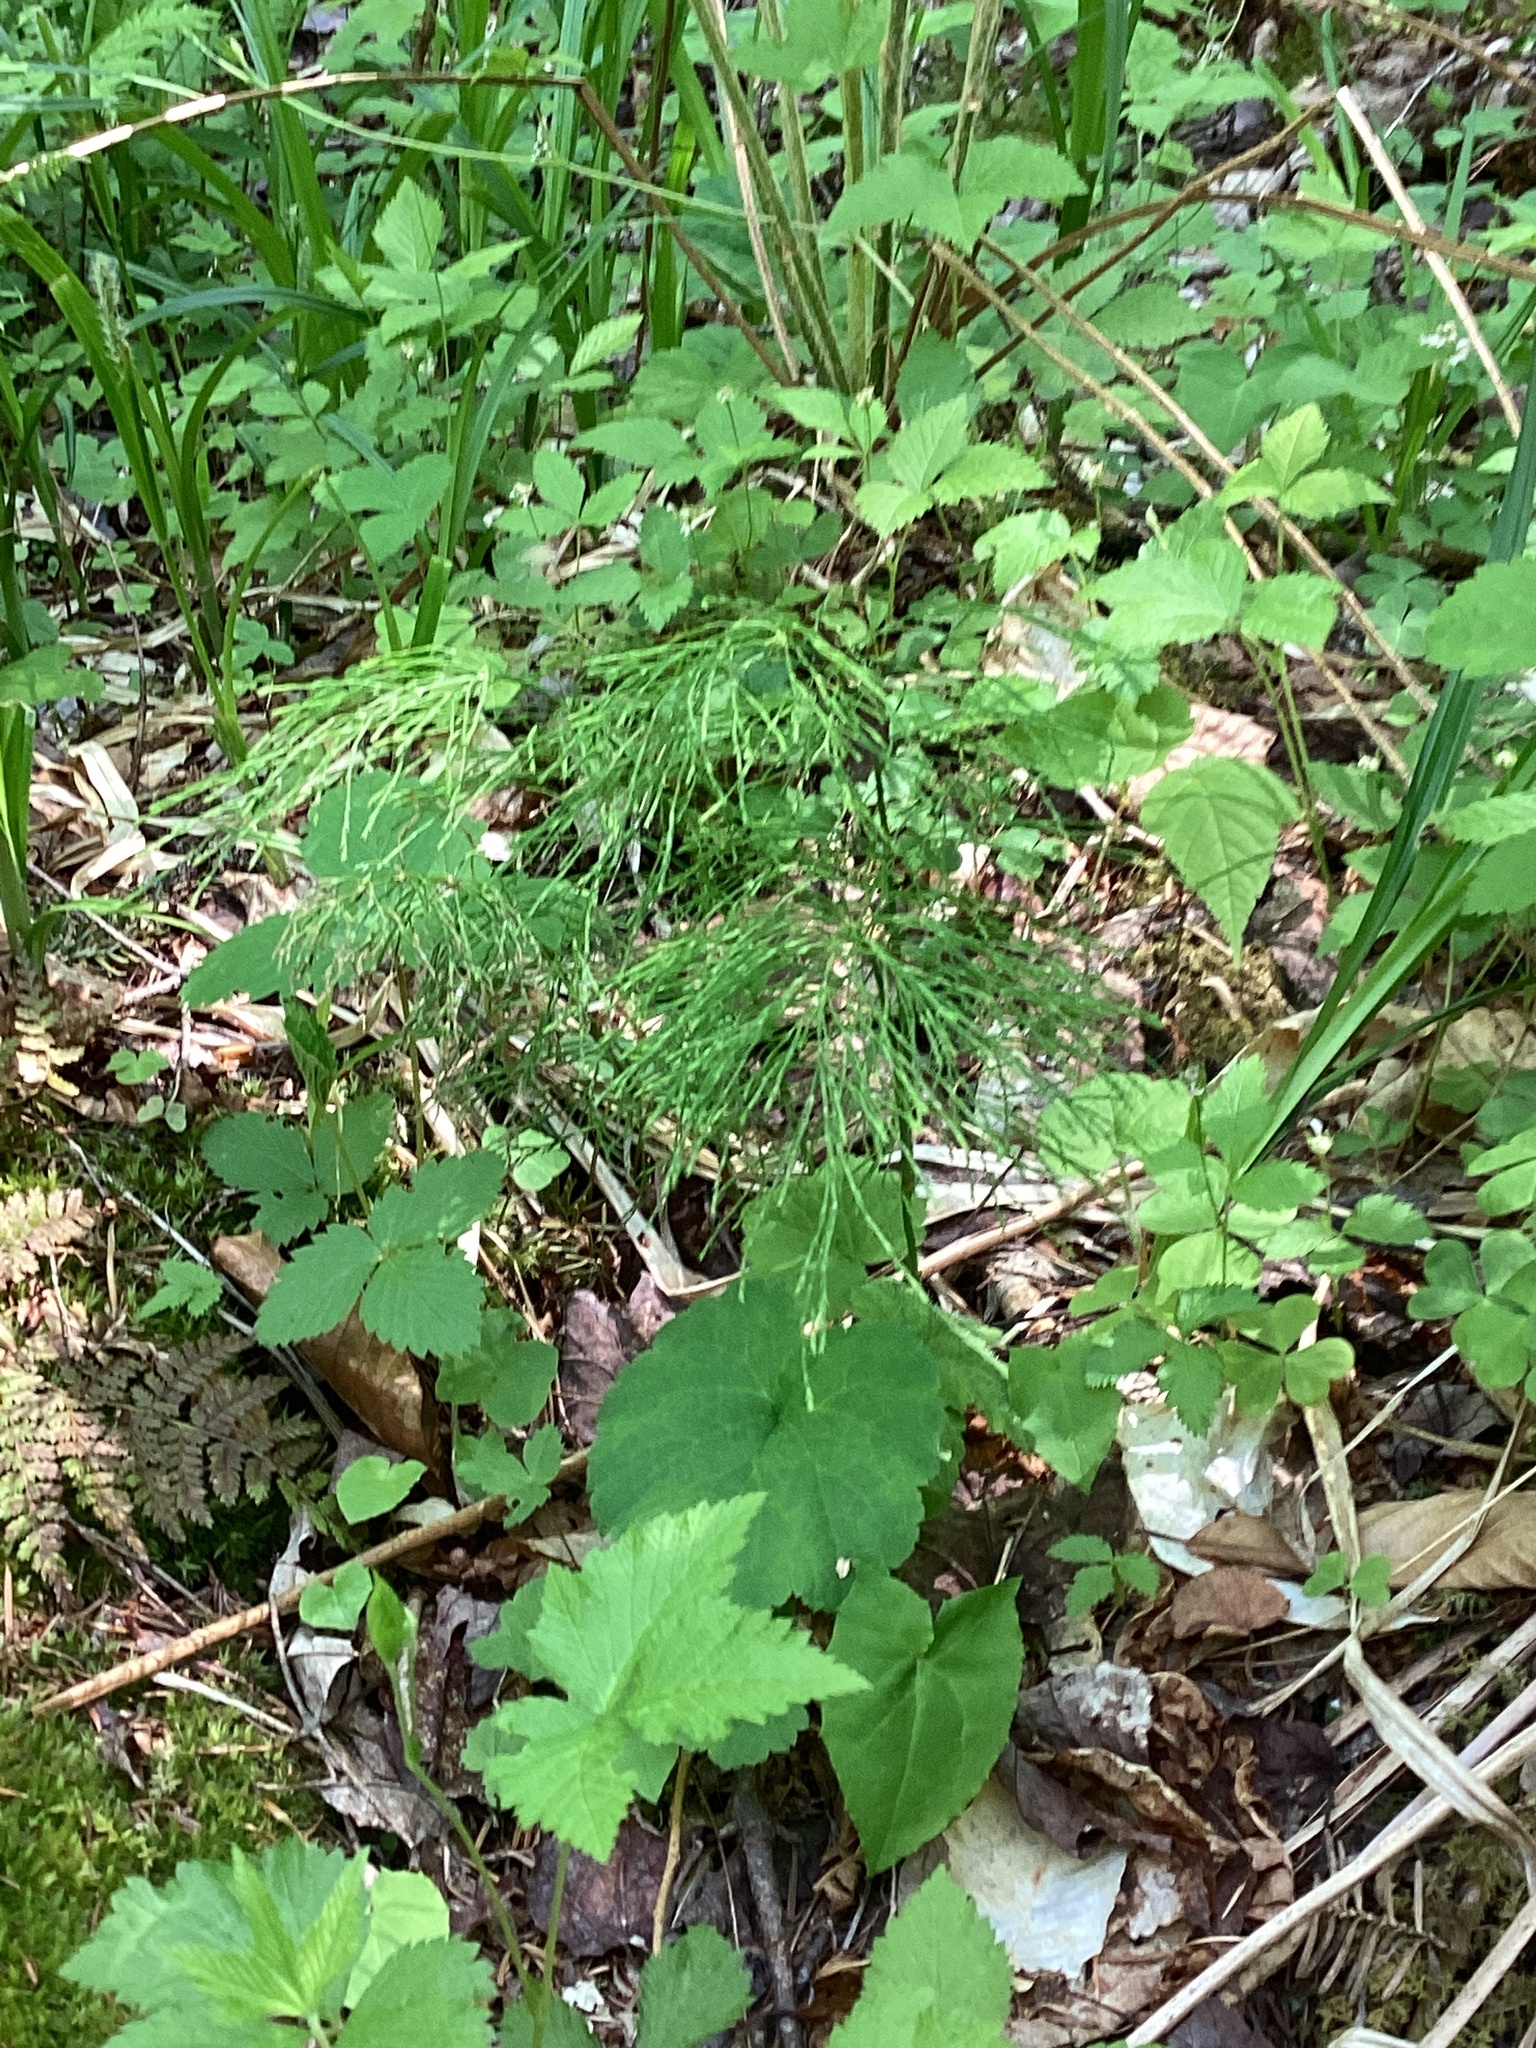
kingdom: Plantae
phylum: Tracheophyta
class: Polypodiopsida
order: Equisetales
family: Equisetaceae
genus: Equisetum
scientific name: Equisetum sylvaticum
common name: Wood horsetail
